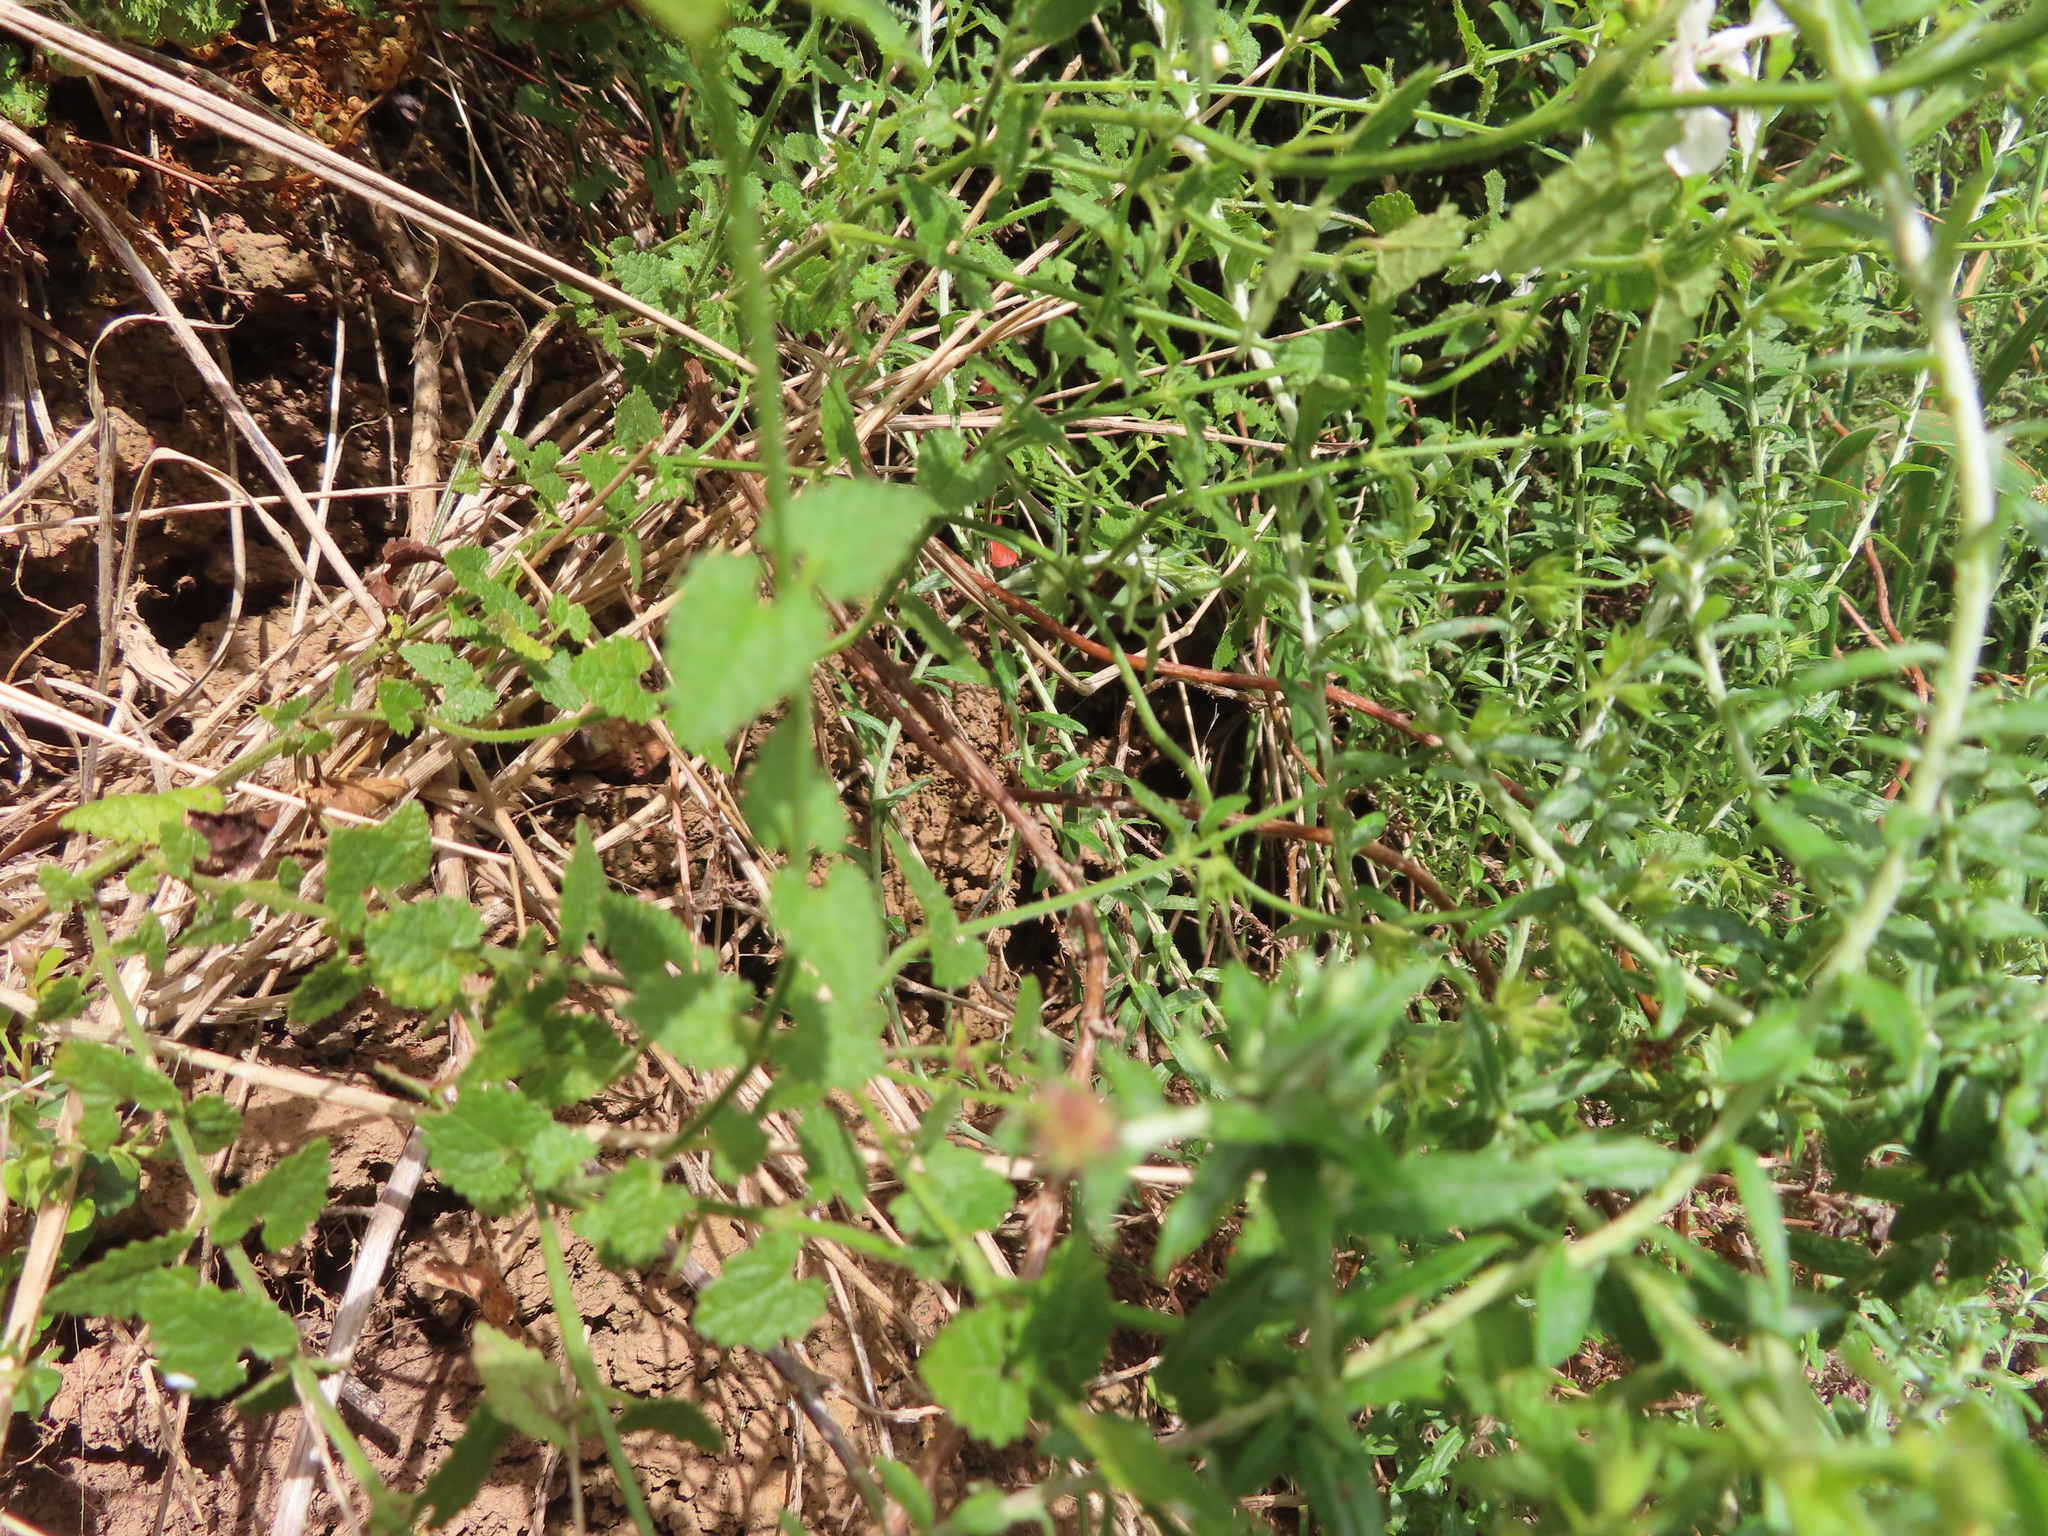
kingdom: Plantae
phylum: Tracheophyta
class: Magnoliopsida
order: Lamiales
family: Lamiaceae
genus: Stachys
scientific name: Stachys aethiopica
